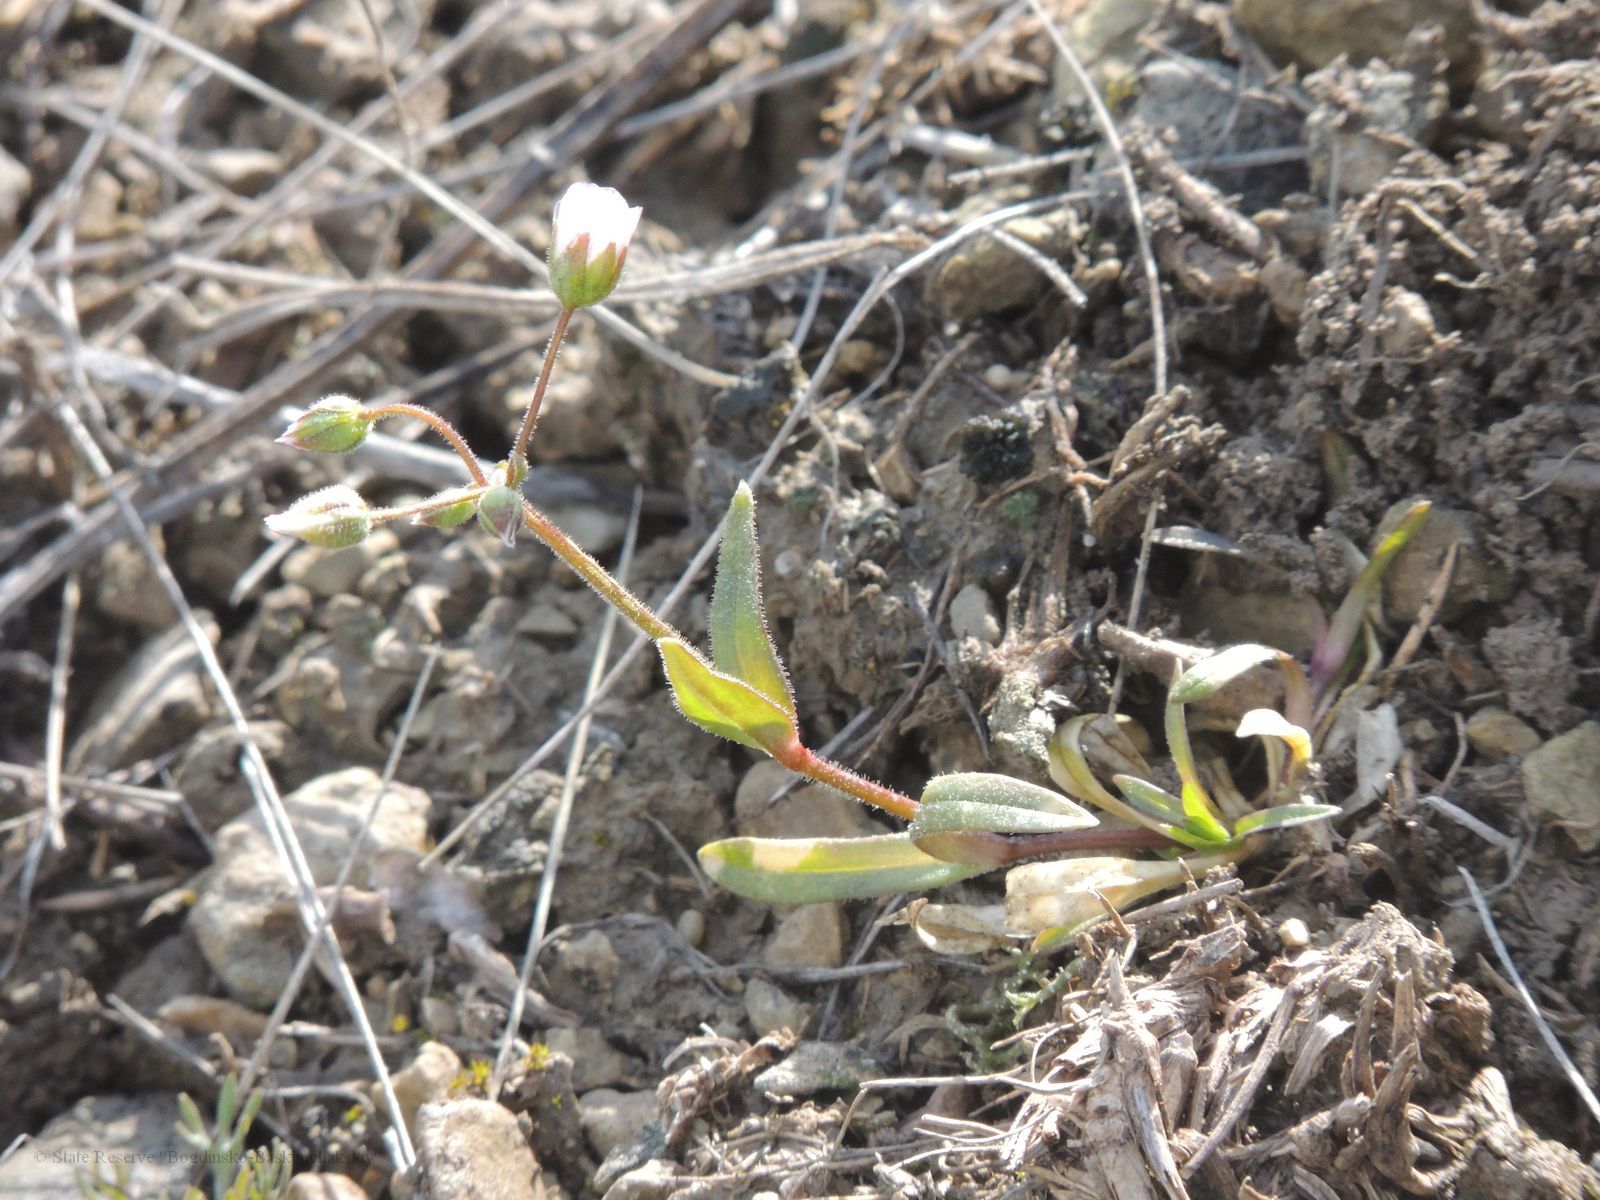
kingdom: Plantae
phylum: Tracheophyta
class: Magnoliopsida
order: Caryophyllales
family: Caryophyllaceae
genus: Holosteum
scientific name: Holosteum glutinosum
